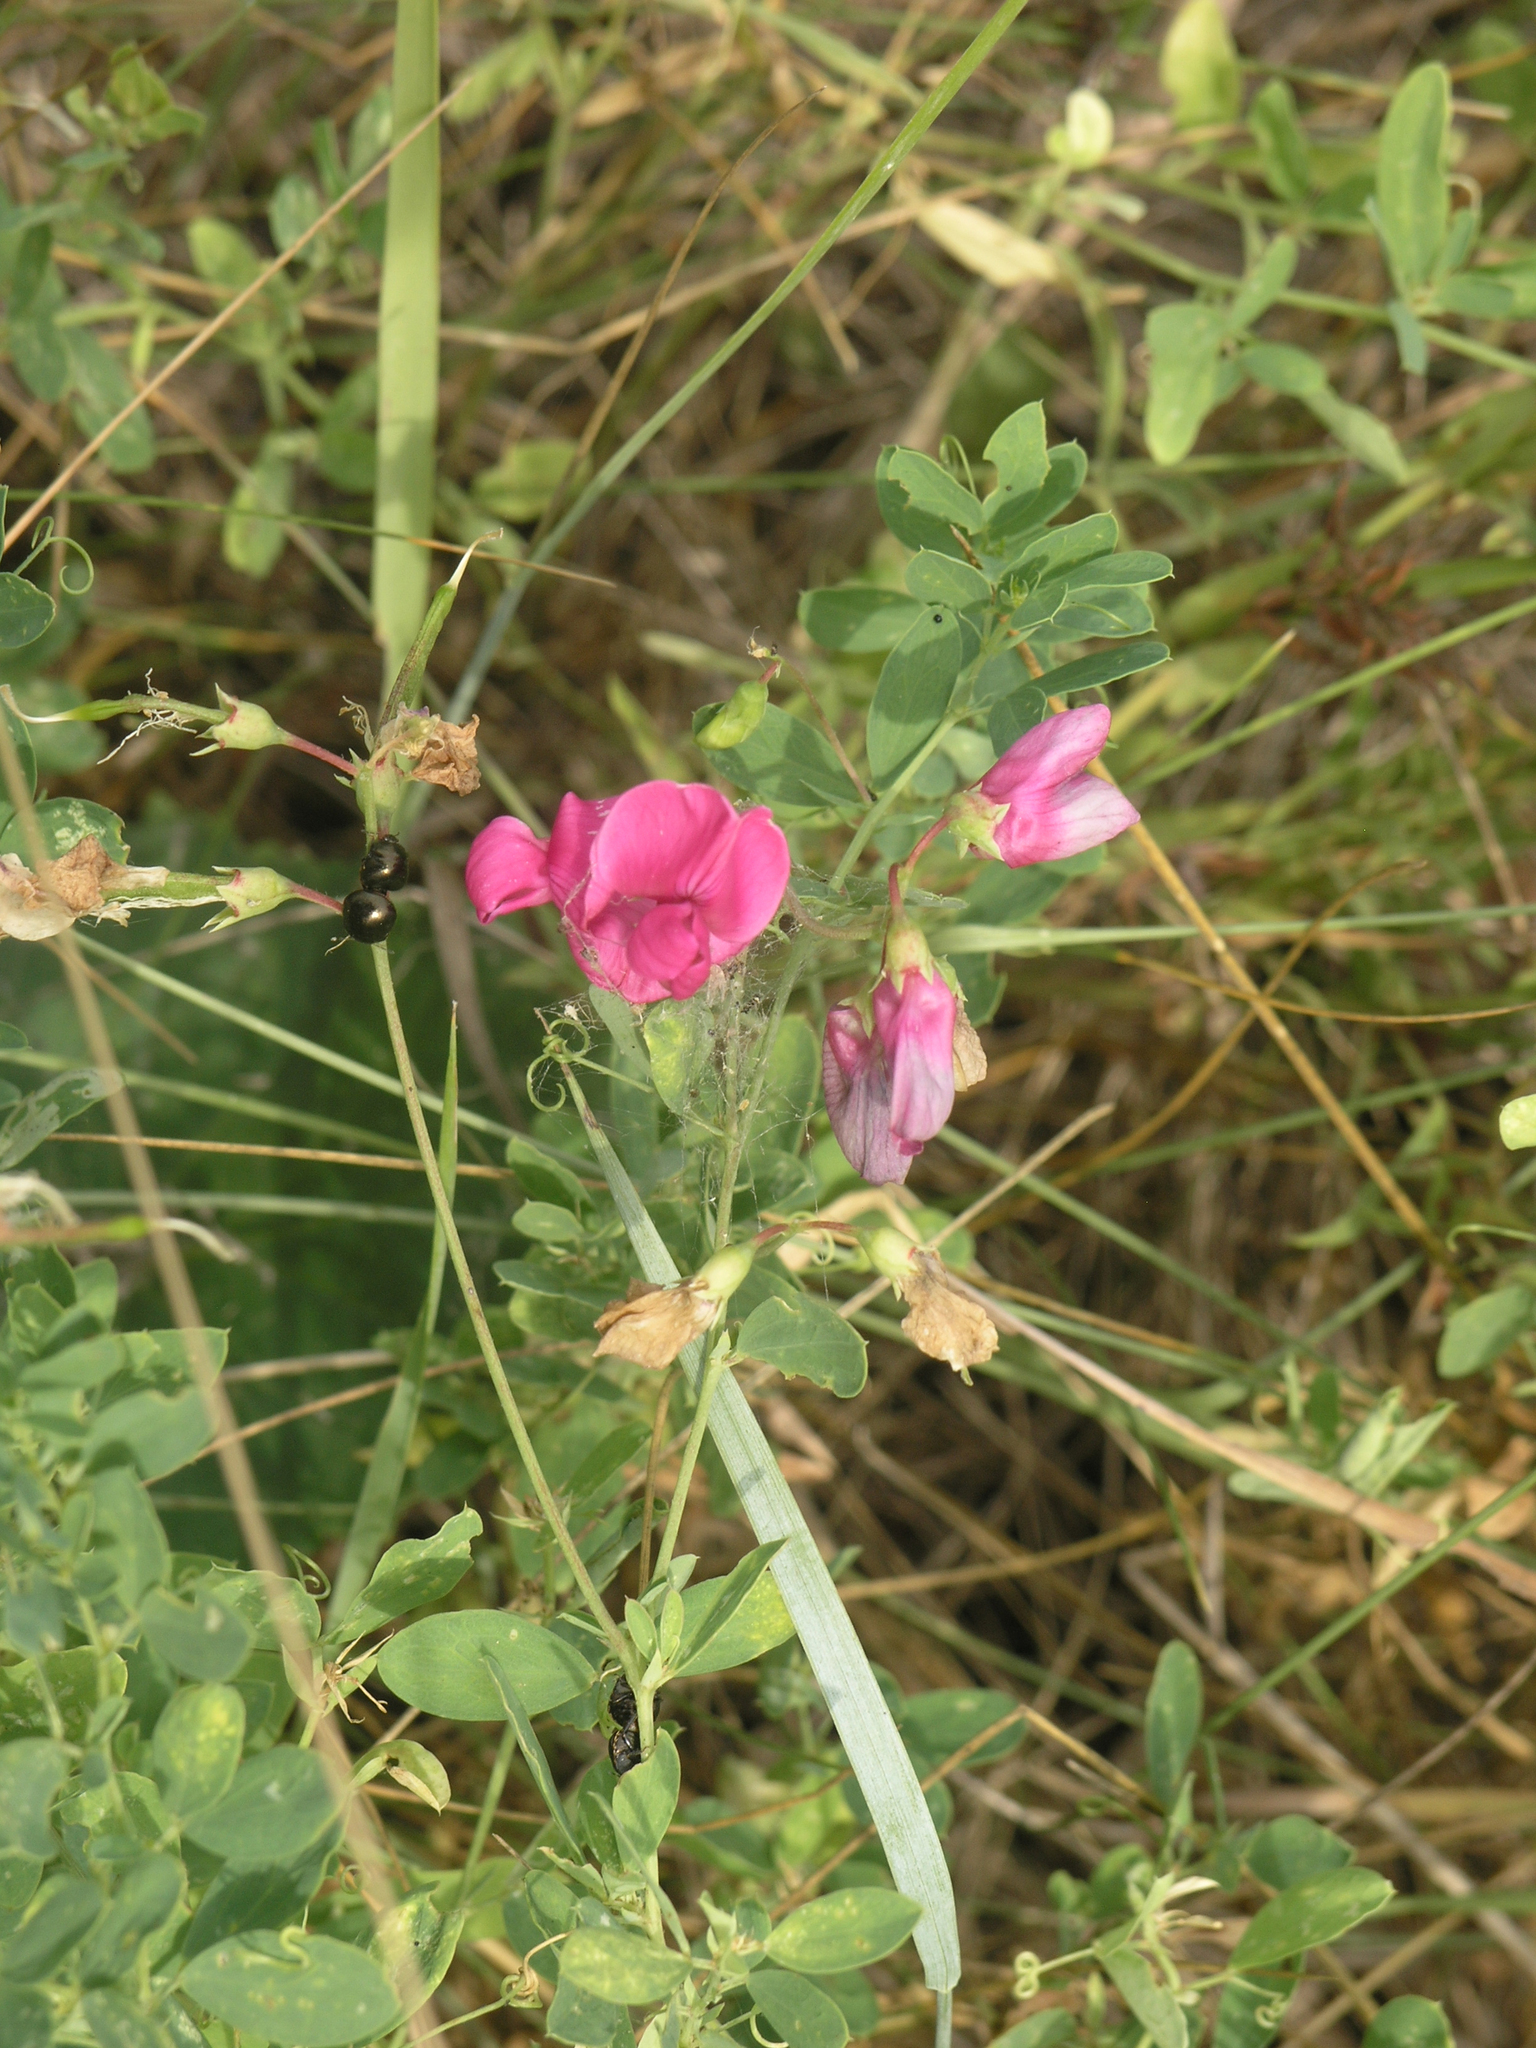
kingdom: Plantae
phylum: Tracheophyta
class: Magnoliopsida
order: Fabales
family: Fabaceae
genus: Lathyrus
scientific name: Lathyrus tuberosus
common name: Tuberous pea
